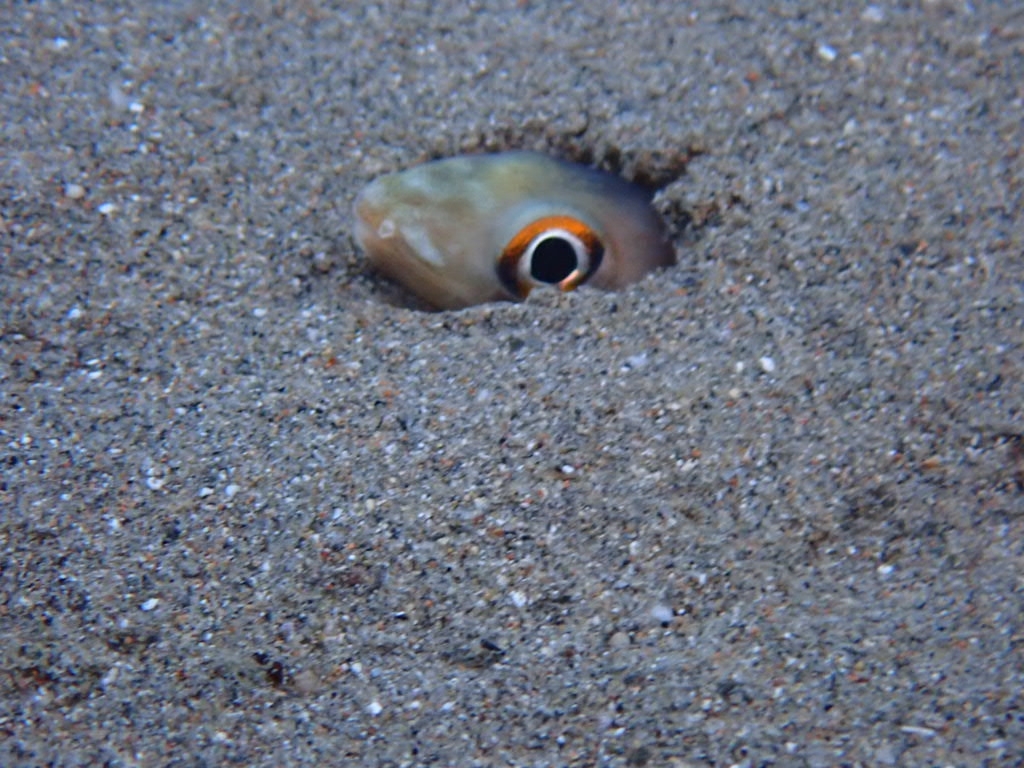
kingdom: Animalia
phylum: Chordata
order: Anguilliformes
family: Congridae
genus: Ariosoma
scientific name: Ariosoma balearicum
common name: Bandtooth conger
